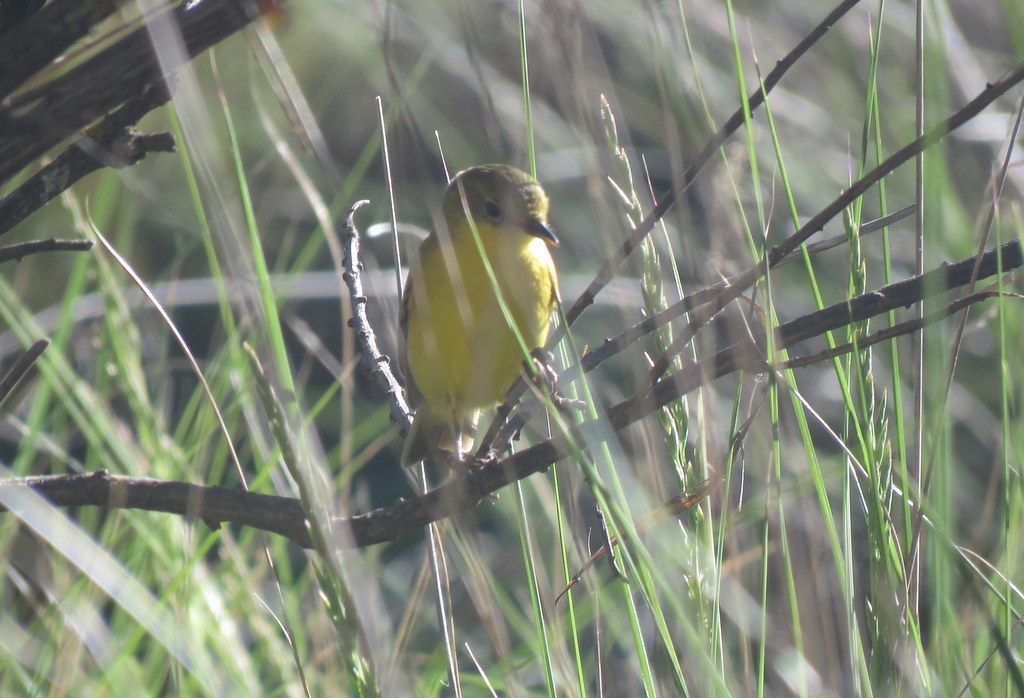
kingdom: Animalia
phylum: Chordata
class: Aves
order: Passeriformes
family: Tyrannidae
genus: Pseudocolopteryx
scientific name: Pseudocolopteryx acutipennis
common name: Subtropical doradito
